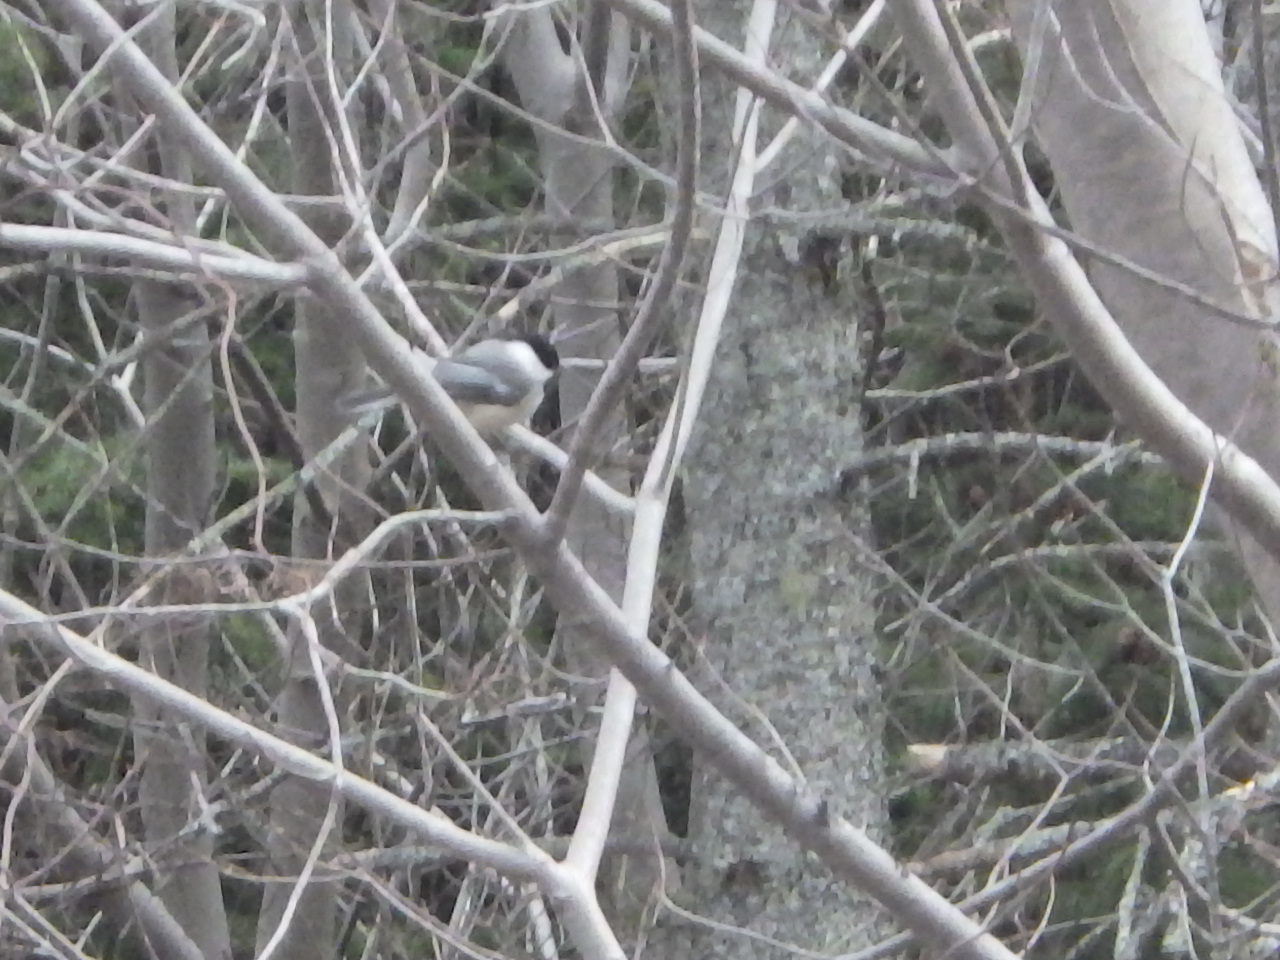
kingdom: Animalia
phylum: Chordata
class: Aves
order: Passeriformes
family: Paridae
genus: Poecile
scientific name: Poecile atricapillus
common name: Black-capped chickadee
